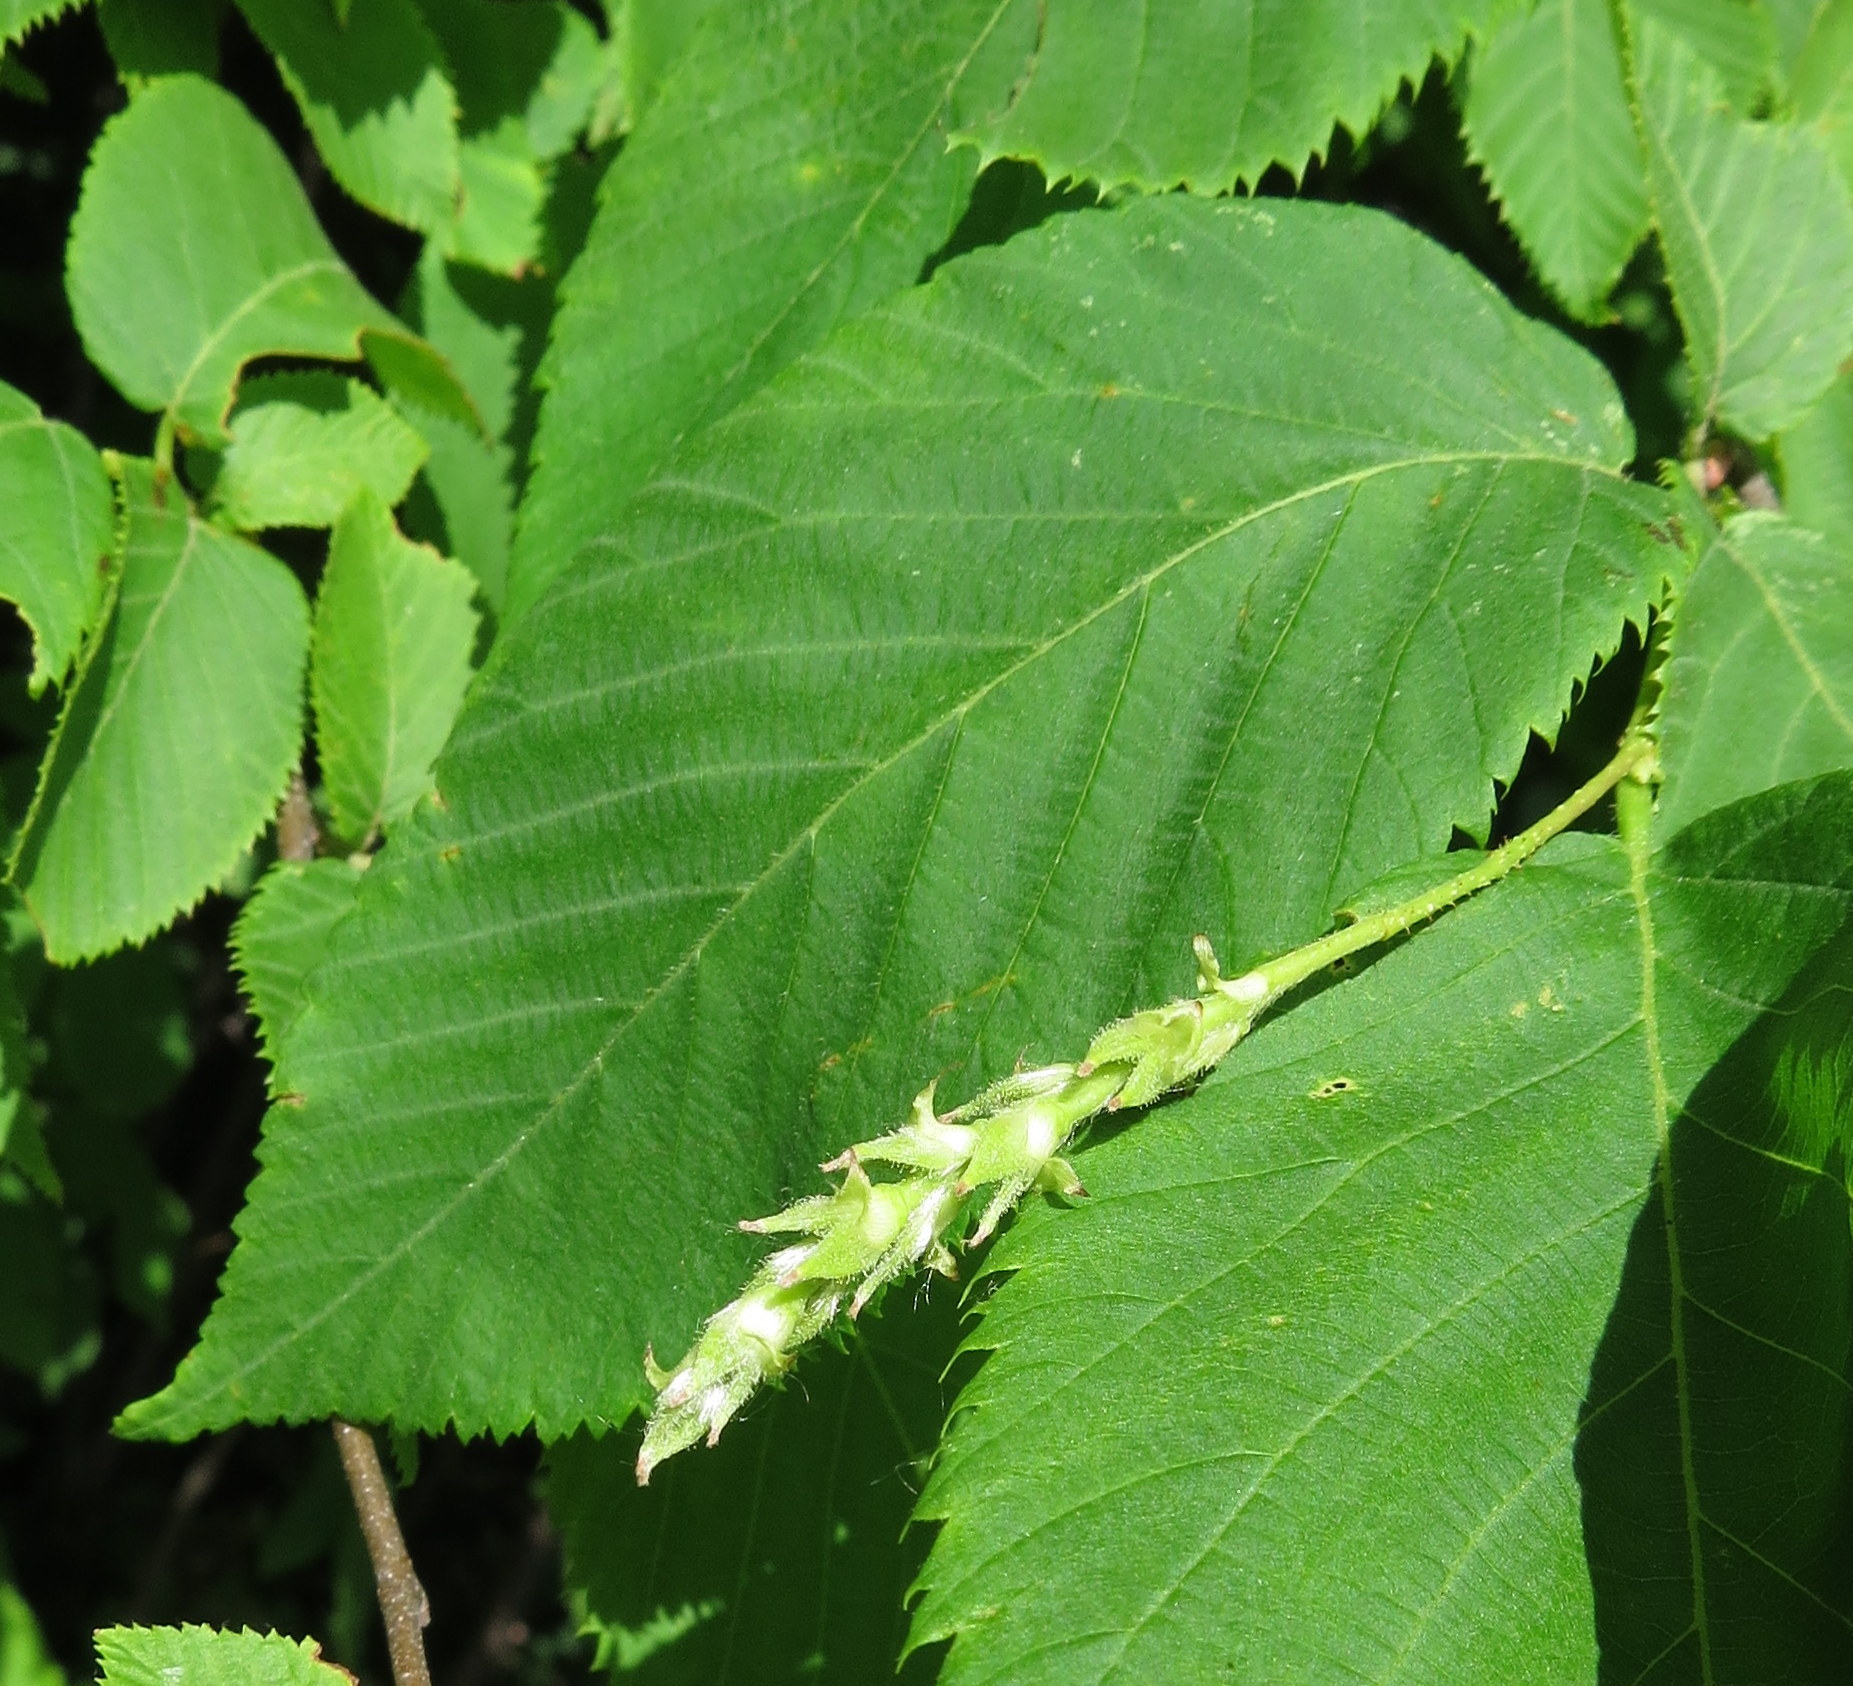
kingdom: Plantae
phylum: Tracheophyta
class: Magnoliopsida
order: Fagales
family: Betulaceae
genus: Ostrya
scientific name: Ostrya virginiana
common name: Ironwood
